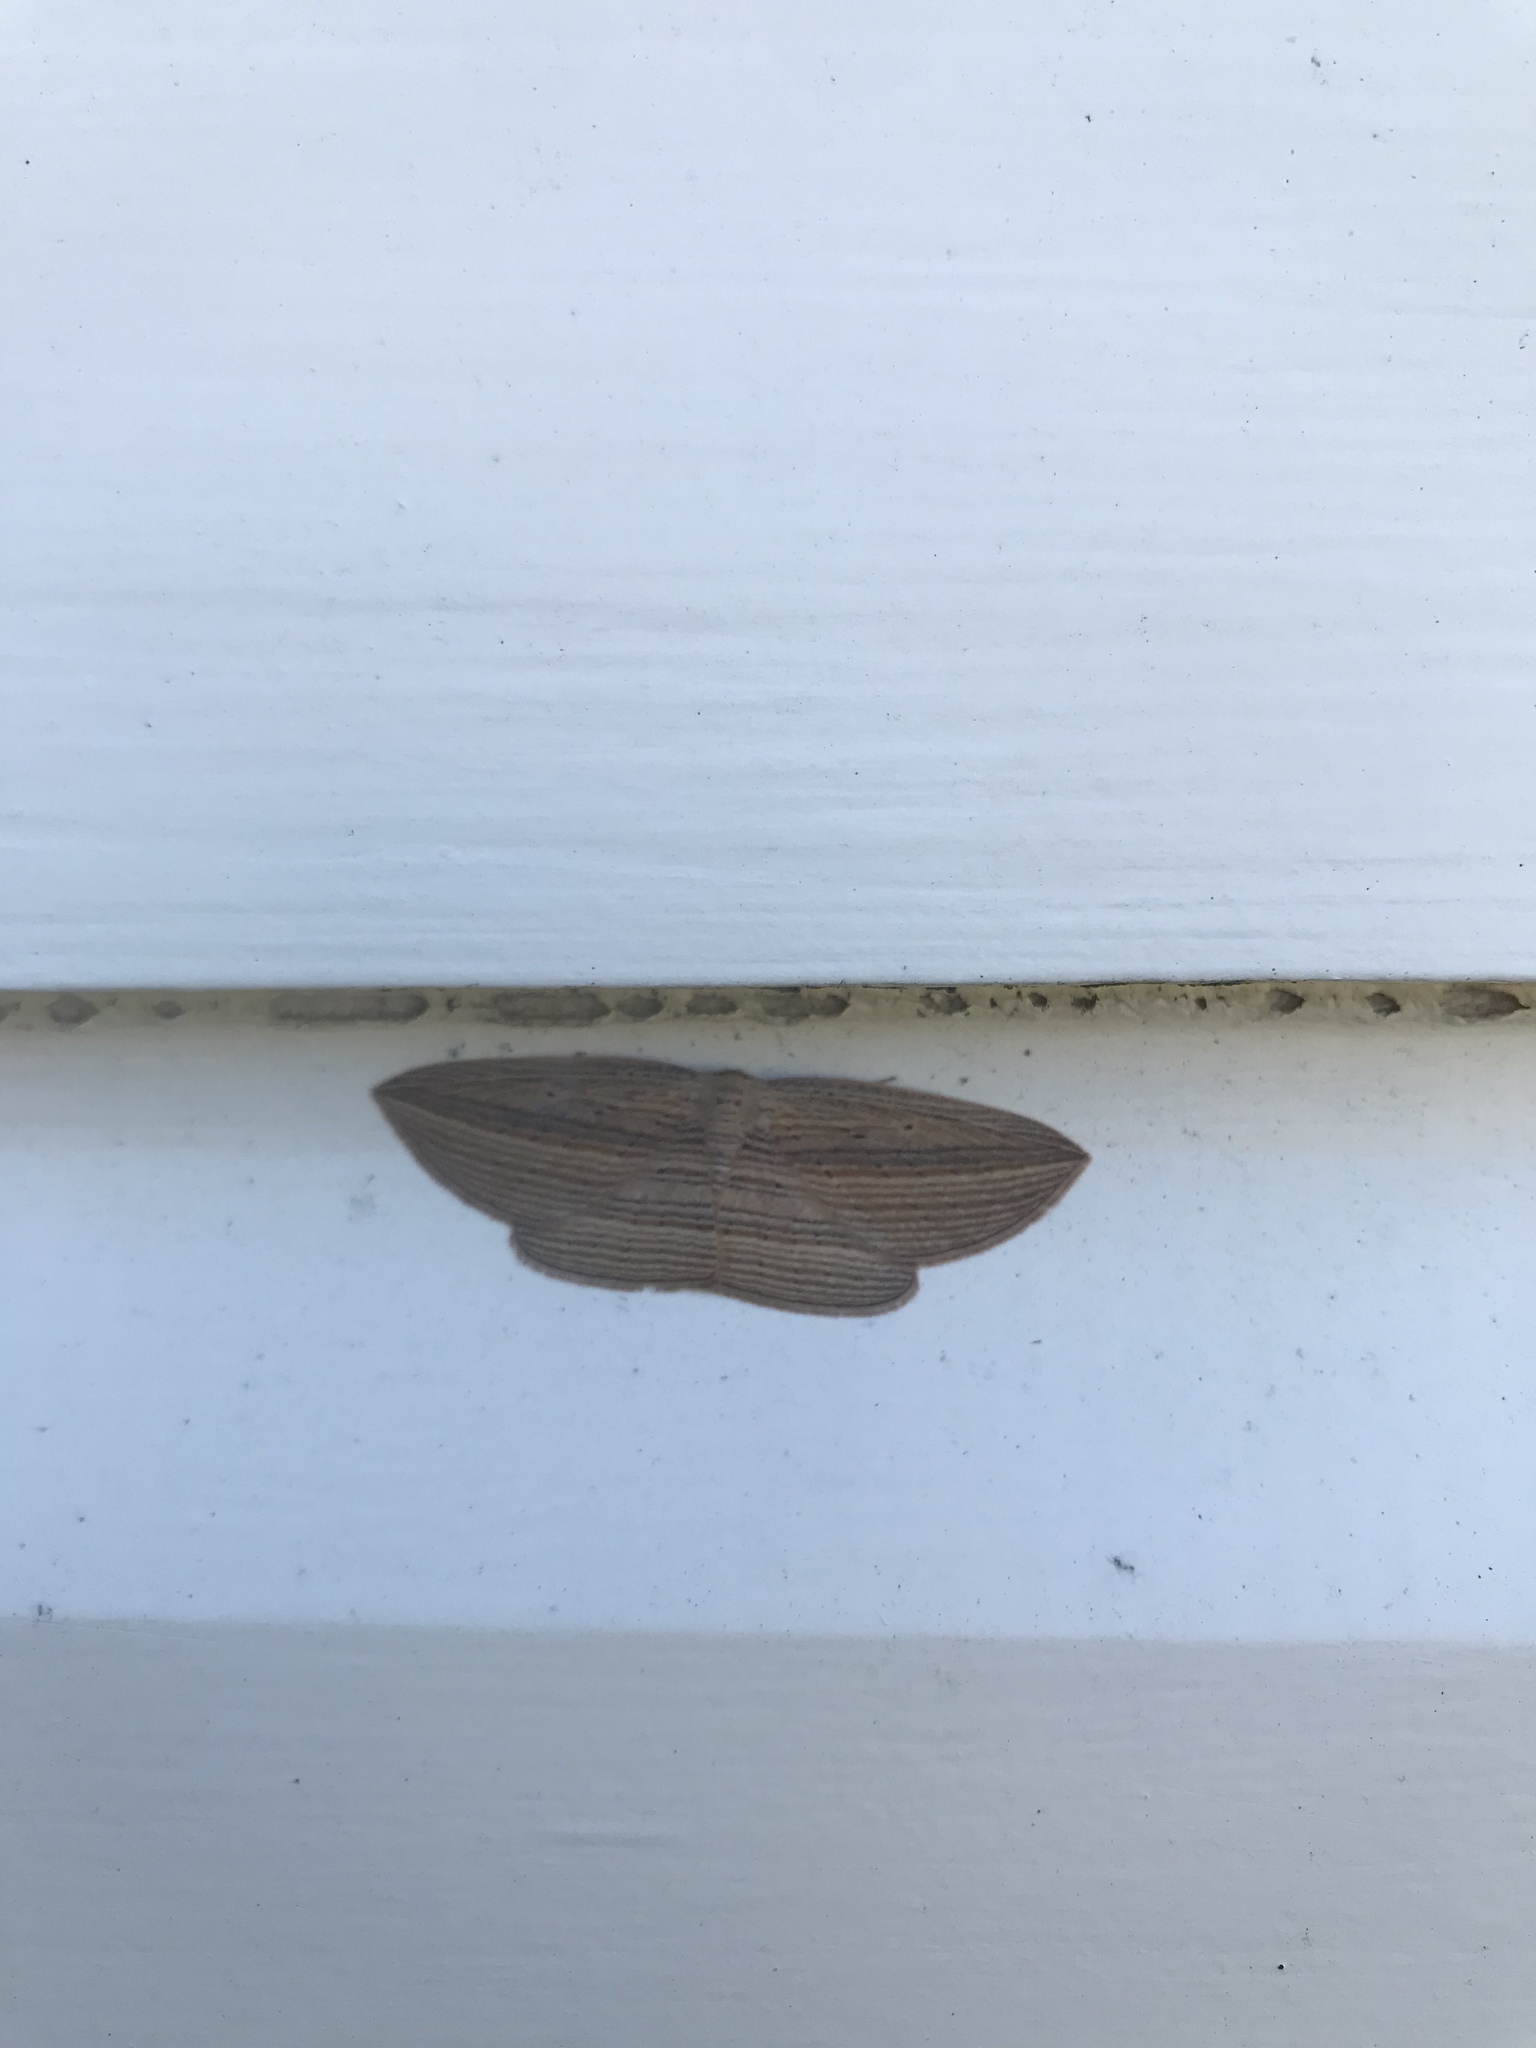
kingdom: Animalia
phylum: Arthropoda
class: Insecta
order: Lepidoptera
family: Geometridae
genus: Epiphryne
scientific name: Epiphryne verriculata
